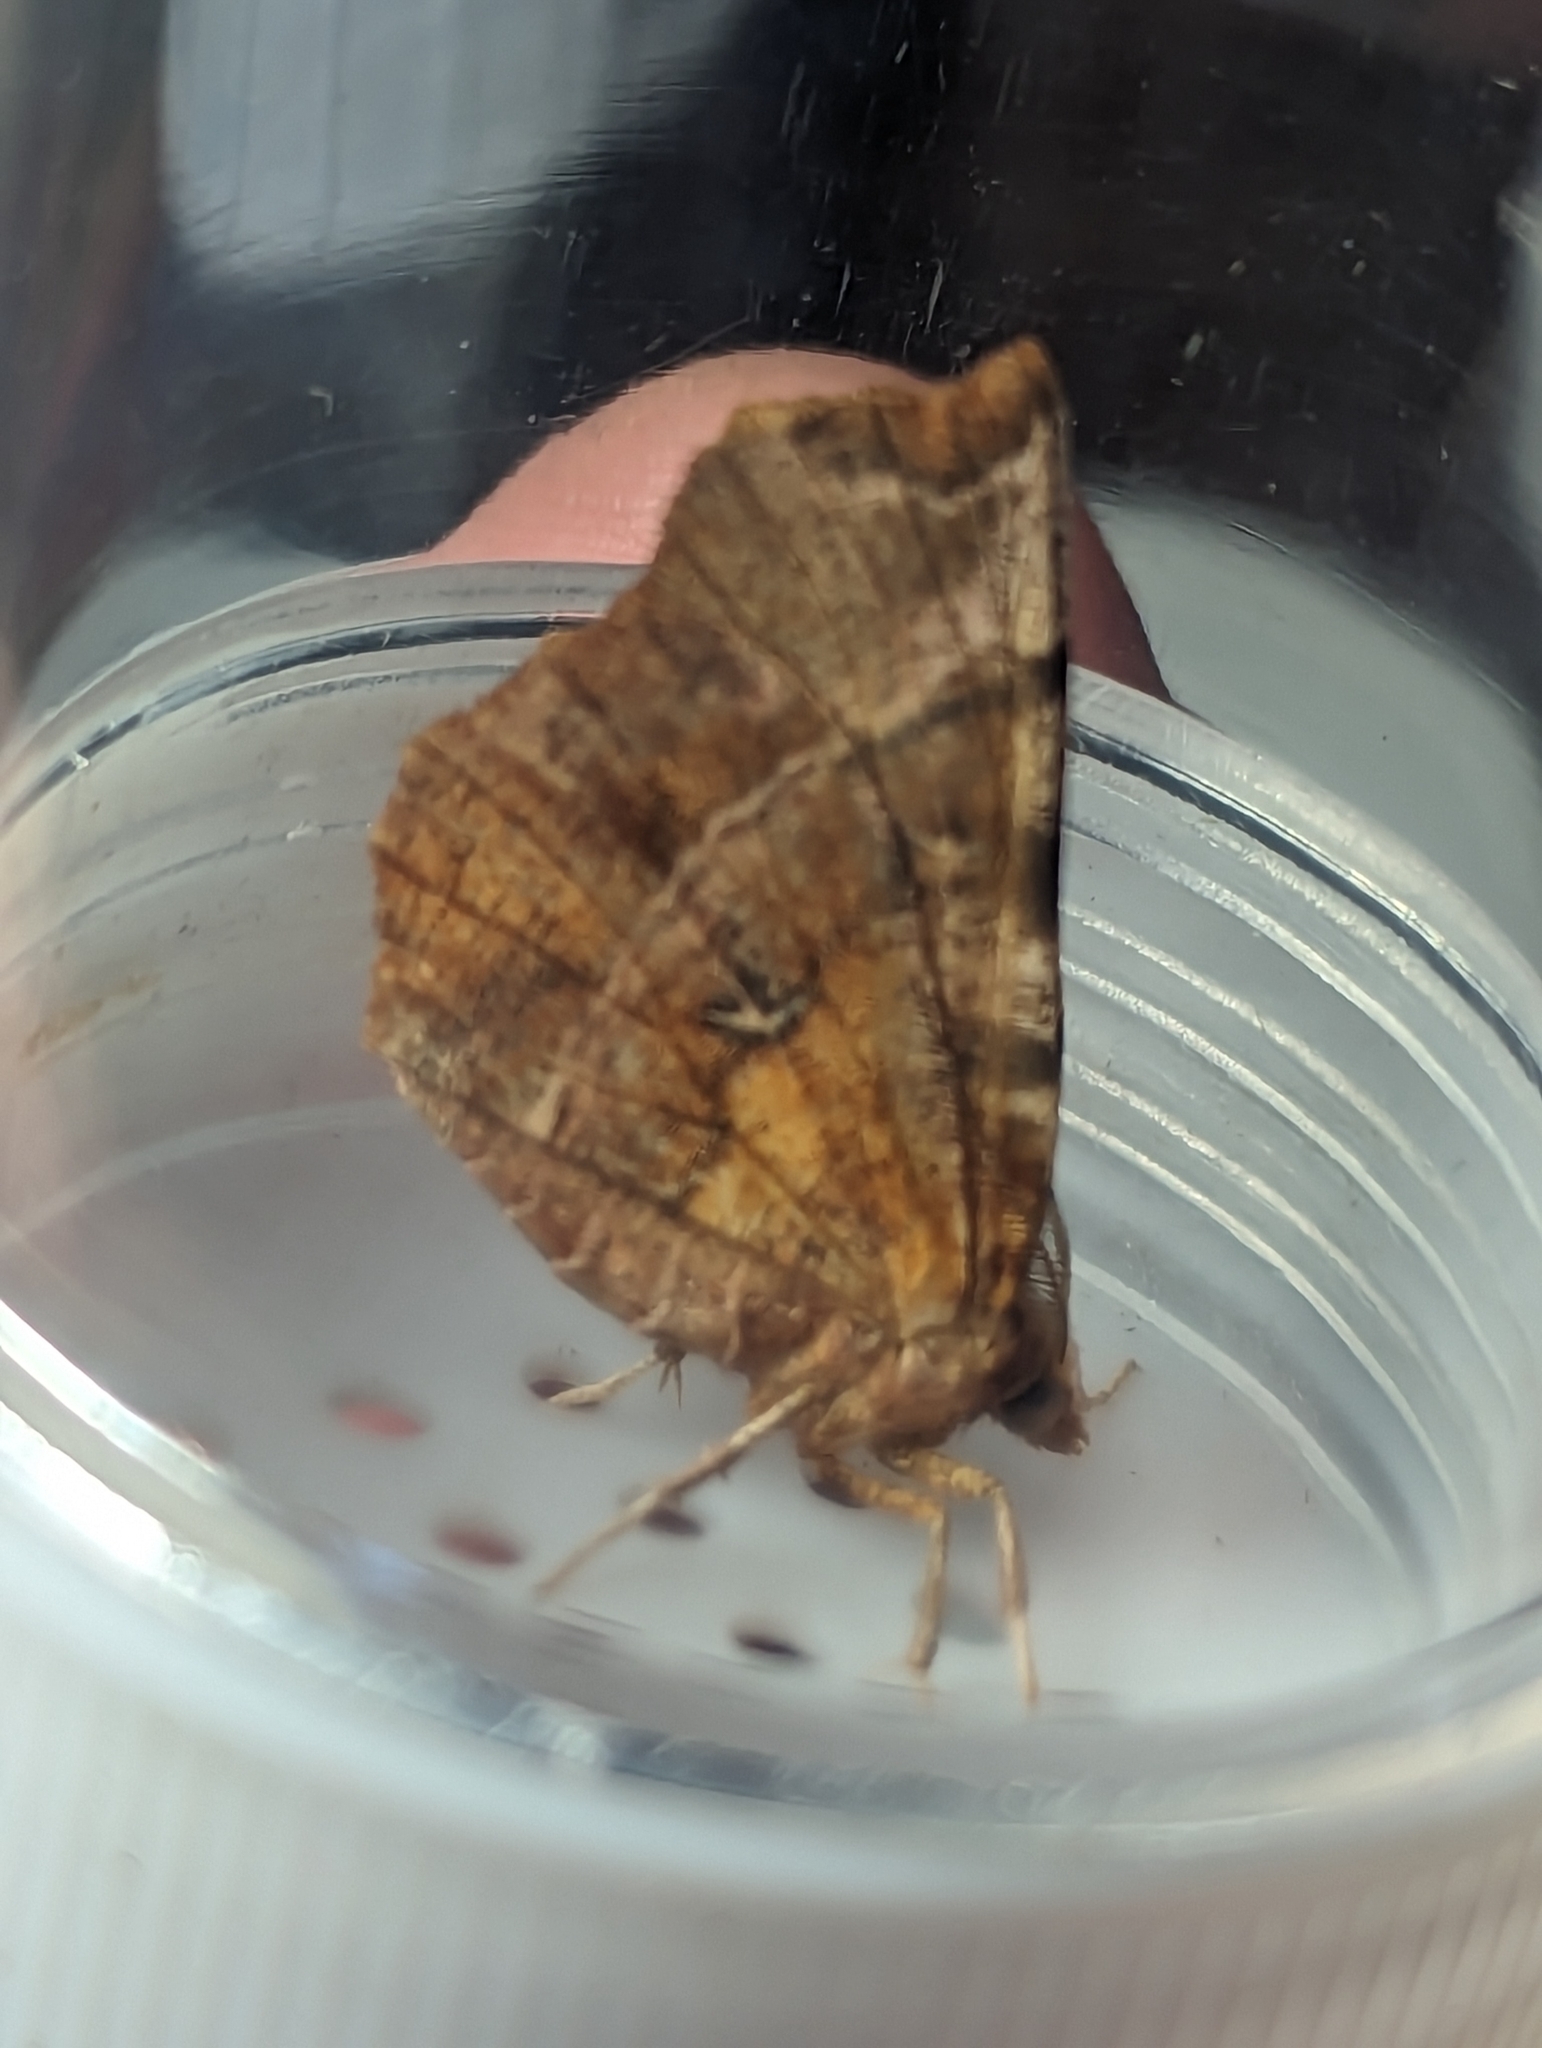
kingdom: Animalia
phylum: Arthropoda
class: Insecta
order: Lepidoptera
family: Geometridae
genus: Selenia
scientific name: Selenia dentaria
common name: Early thorn
